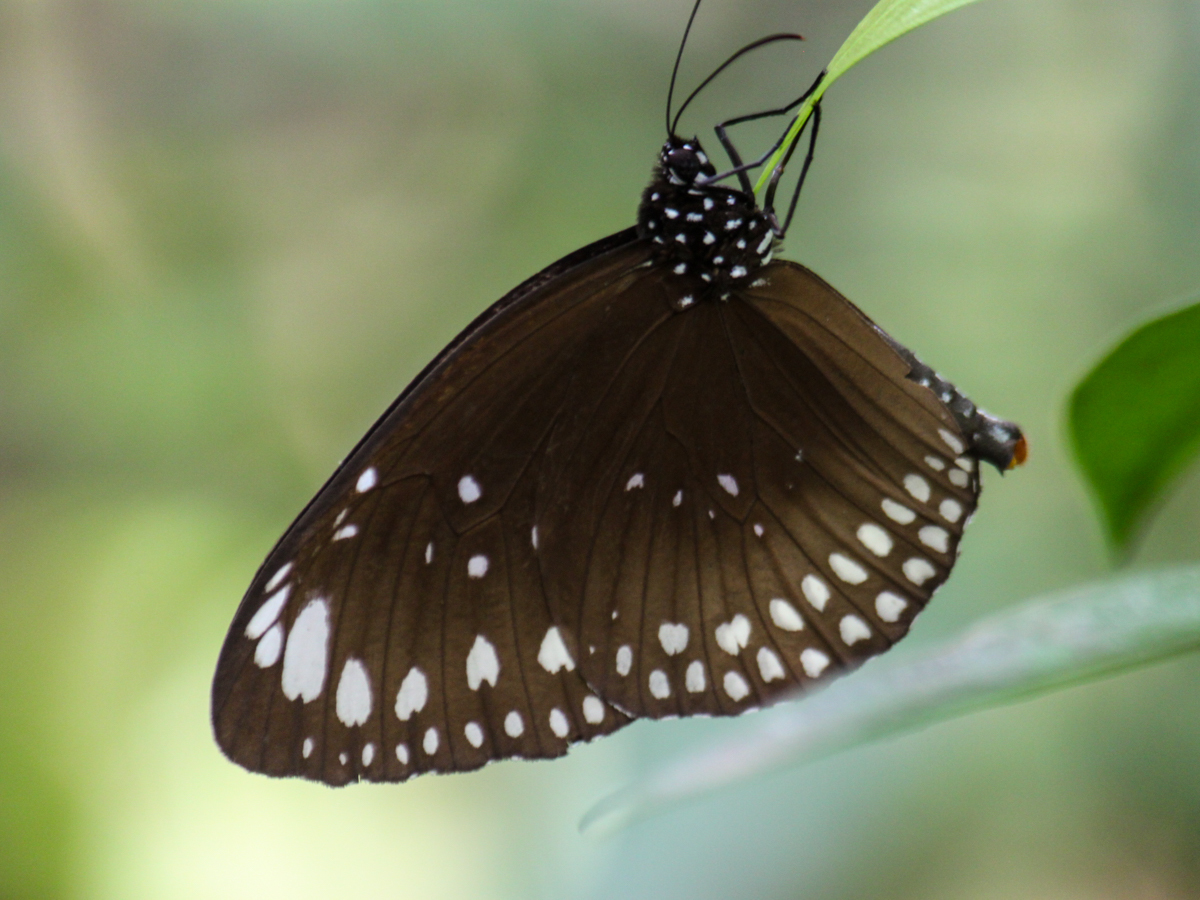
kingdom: Animalia
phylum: Arthropoda
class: Insecta
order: Lepidoptera
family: Nymphalidae
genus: Euploea
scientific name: Euploea crameri
